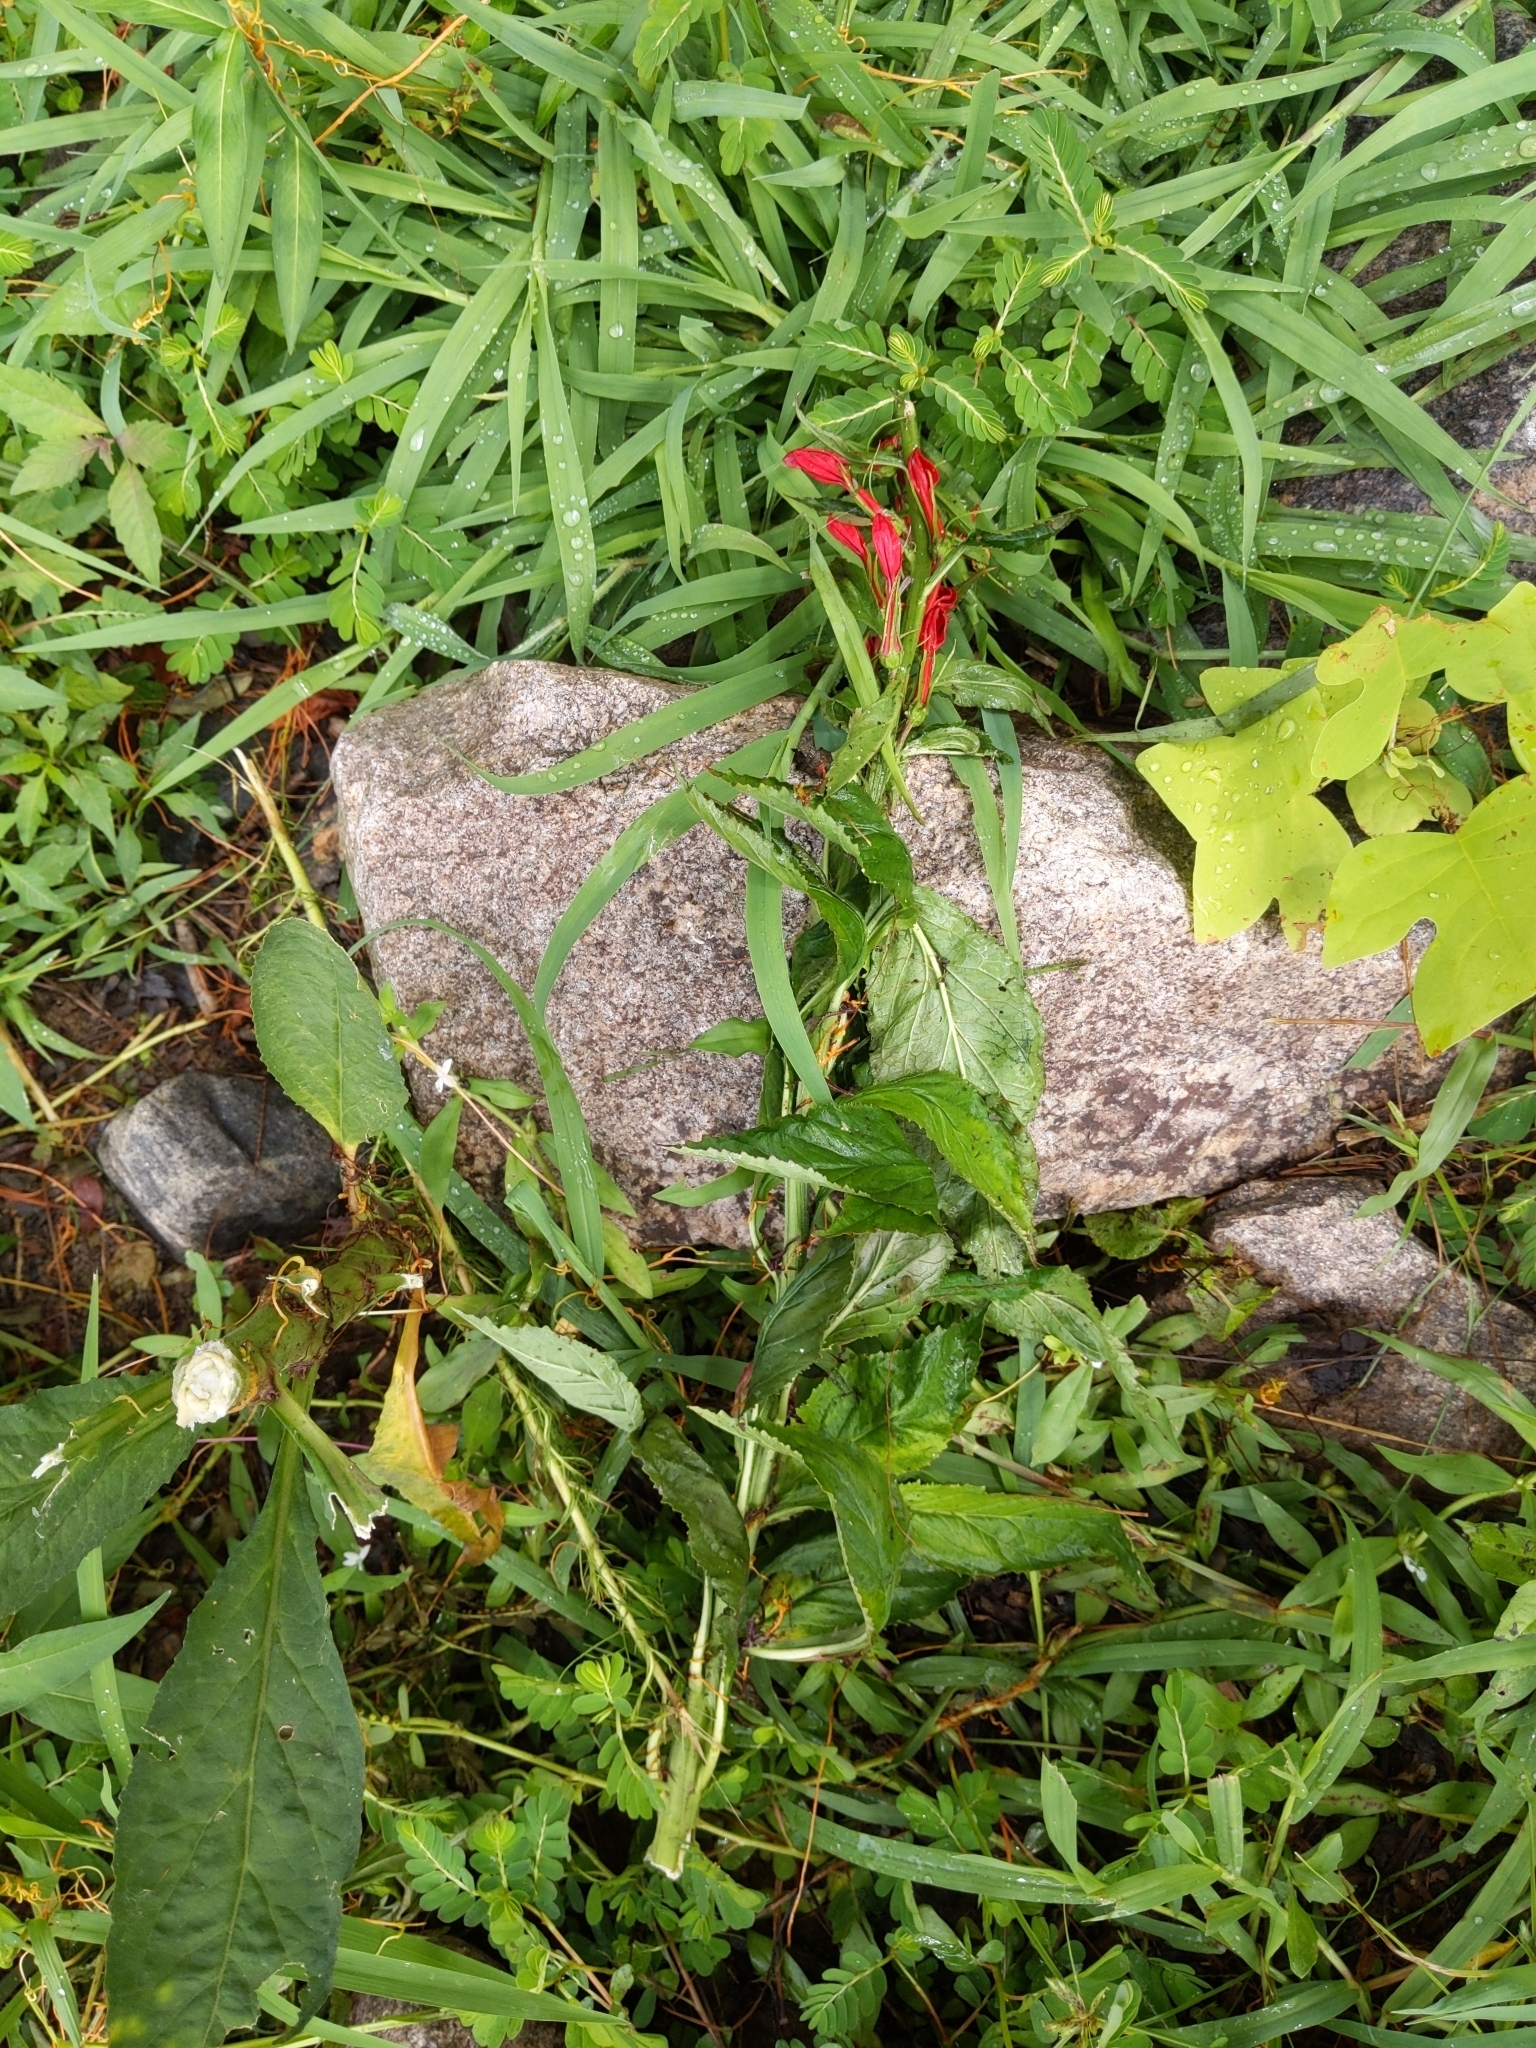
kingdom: Plantae
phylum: Tracheophyta
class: Magnoliopsida
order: Asterales
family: Campanulaceae
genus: Lobelia
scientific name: Lobelia cardinalis
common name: Cardinal flower
